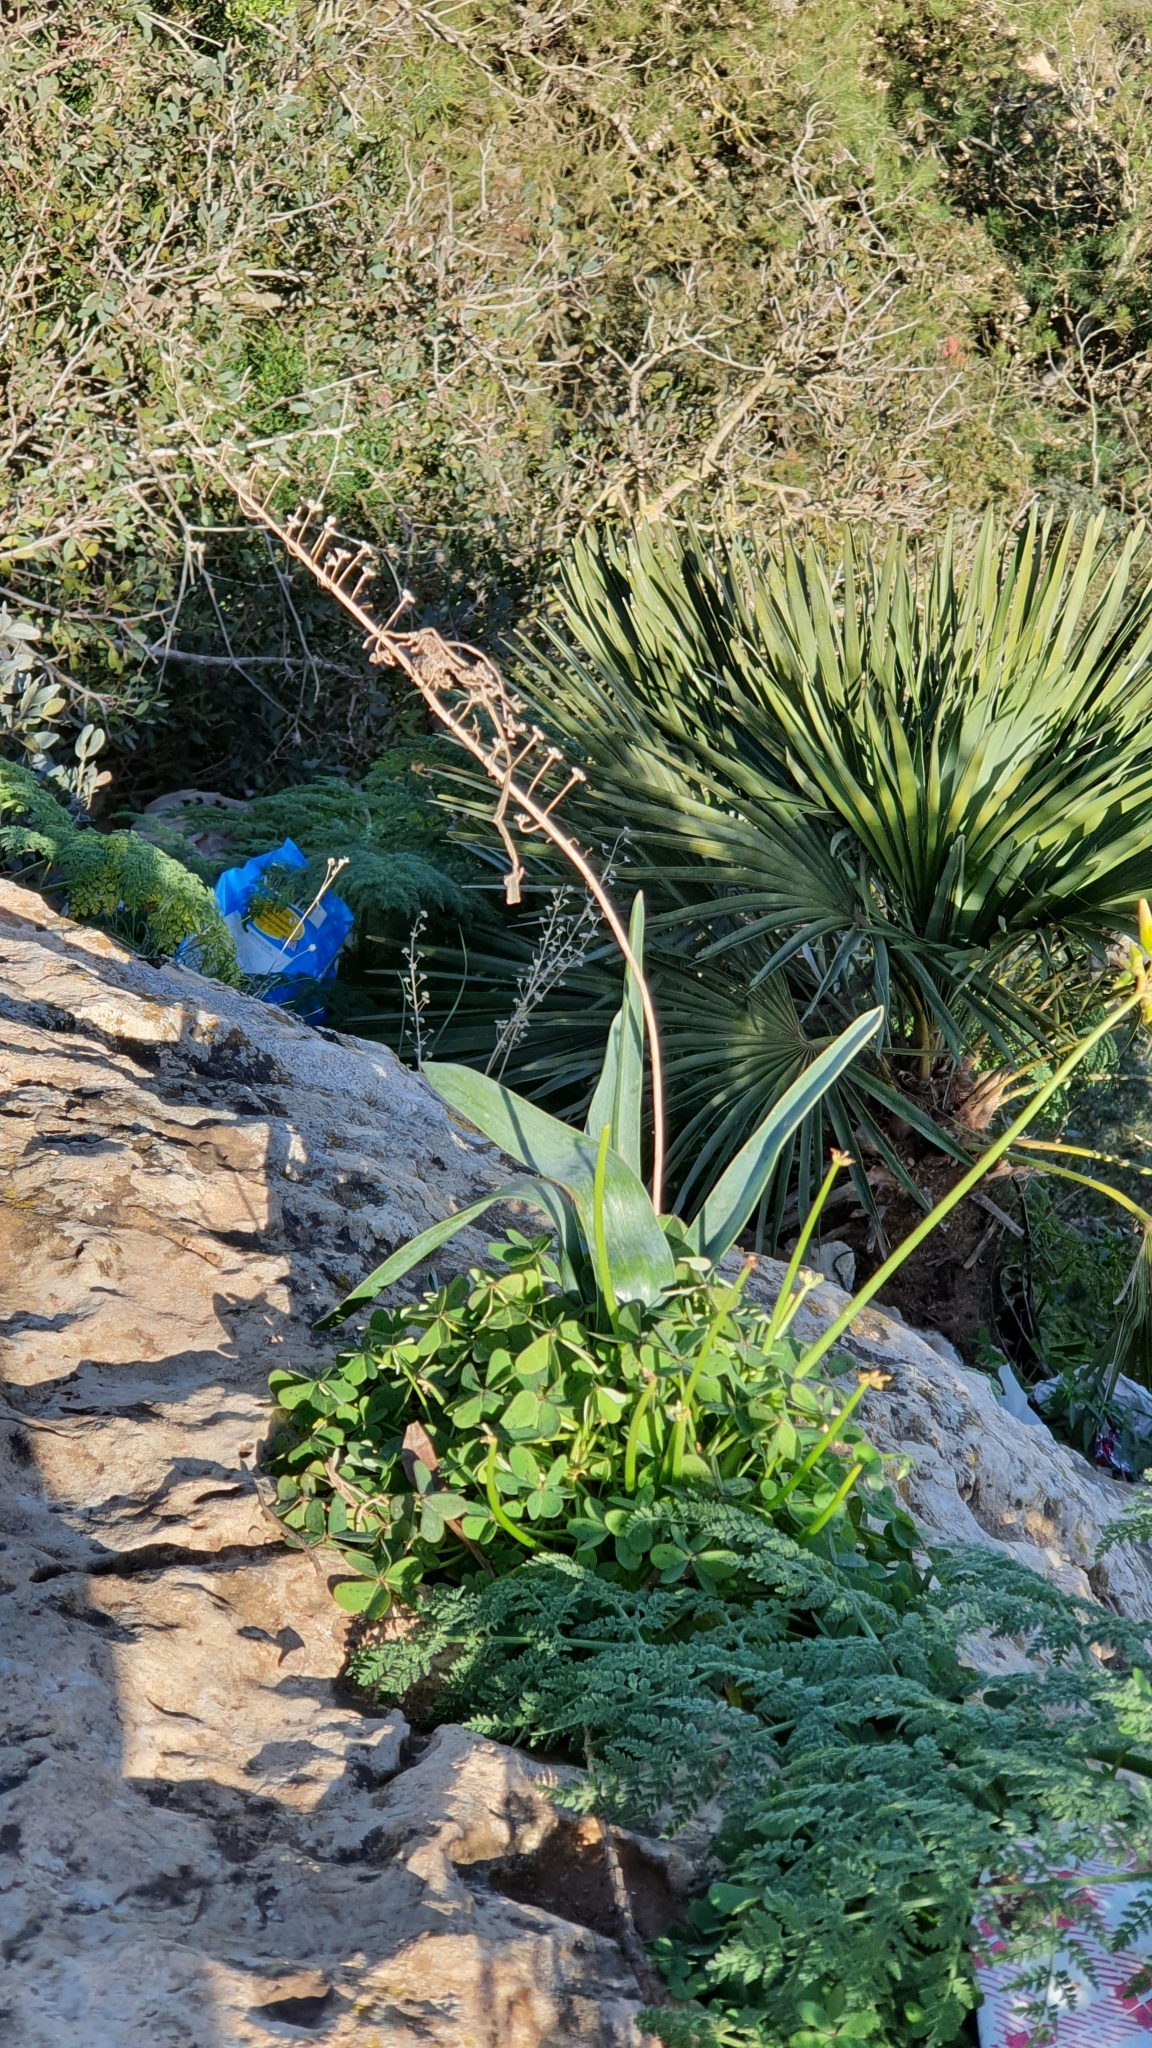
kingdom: Plantae
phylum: Tracheophyta
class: Liliopsida
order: Asparagales
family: Asparagaceae
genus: Prospero
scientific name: Prospero obtusifolium
